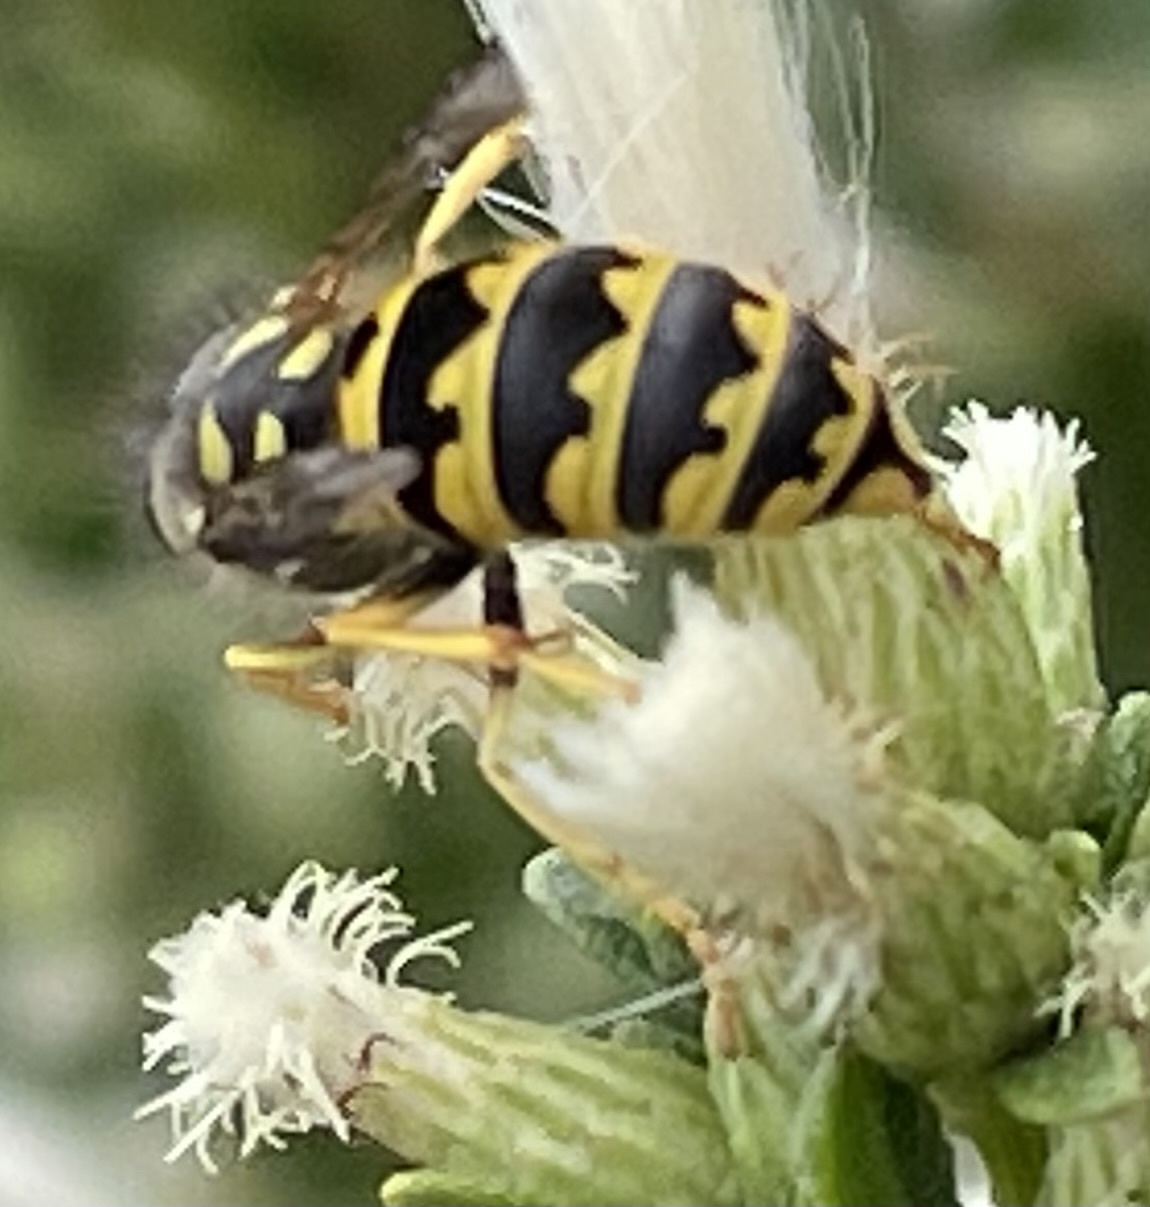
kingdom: Animalia
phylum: Arthropoda
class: Insecta
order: Hymenoptera
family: Vespidae
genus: Vespula
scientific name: Vespula pensylvanica
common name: Western yellowjacket
